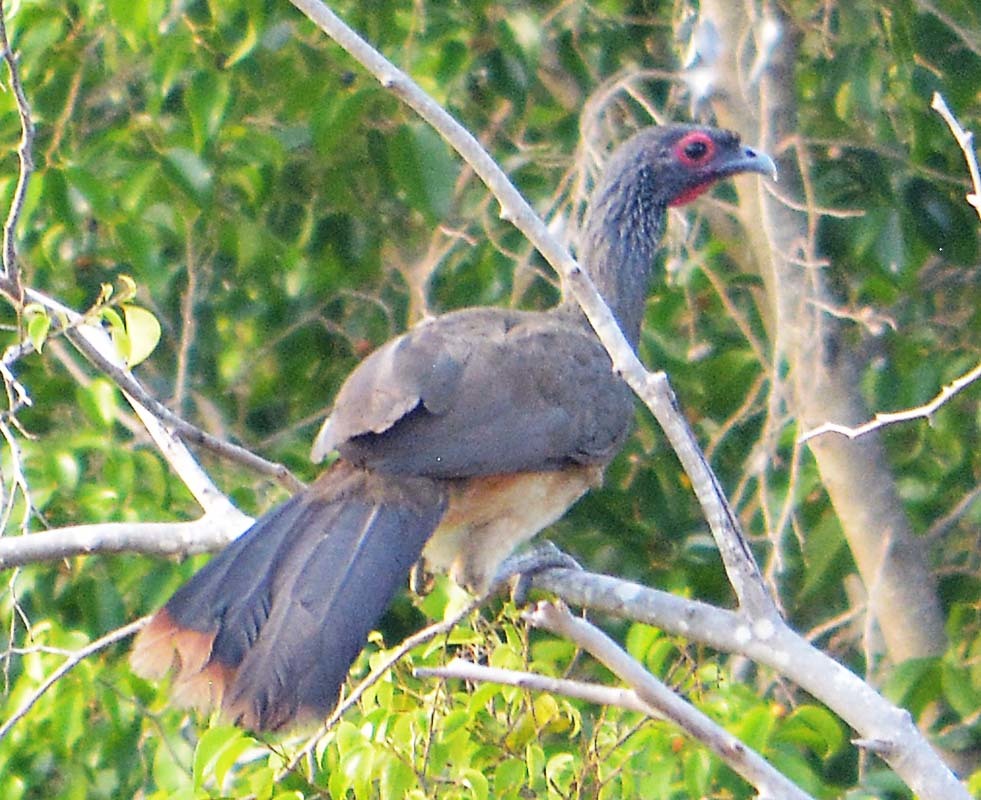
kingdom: Animalia
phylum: Chordata
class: Aves
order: Galliformes
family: Cracidae
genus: Ortalis
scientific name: Ortalis poliocephala
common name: West mexican chachalaca
